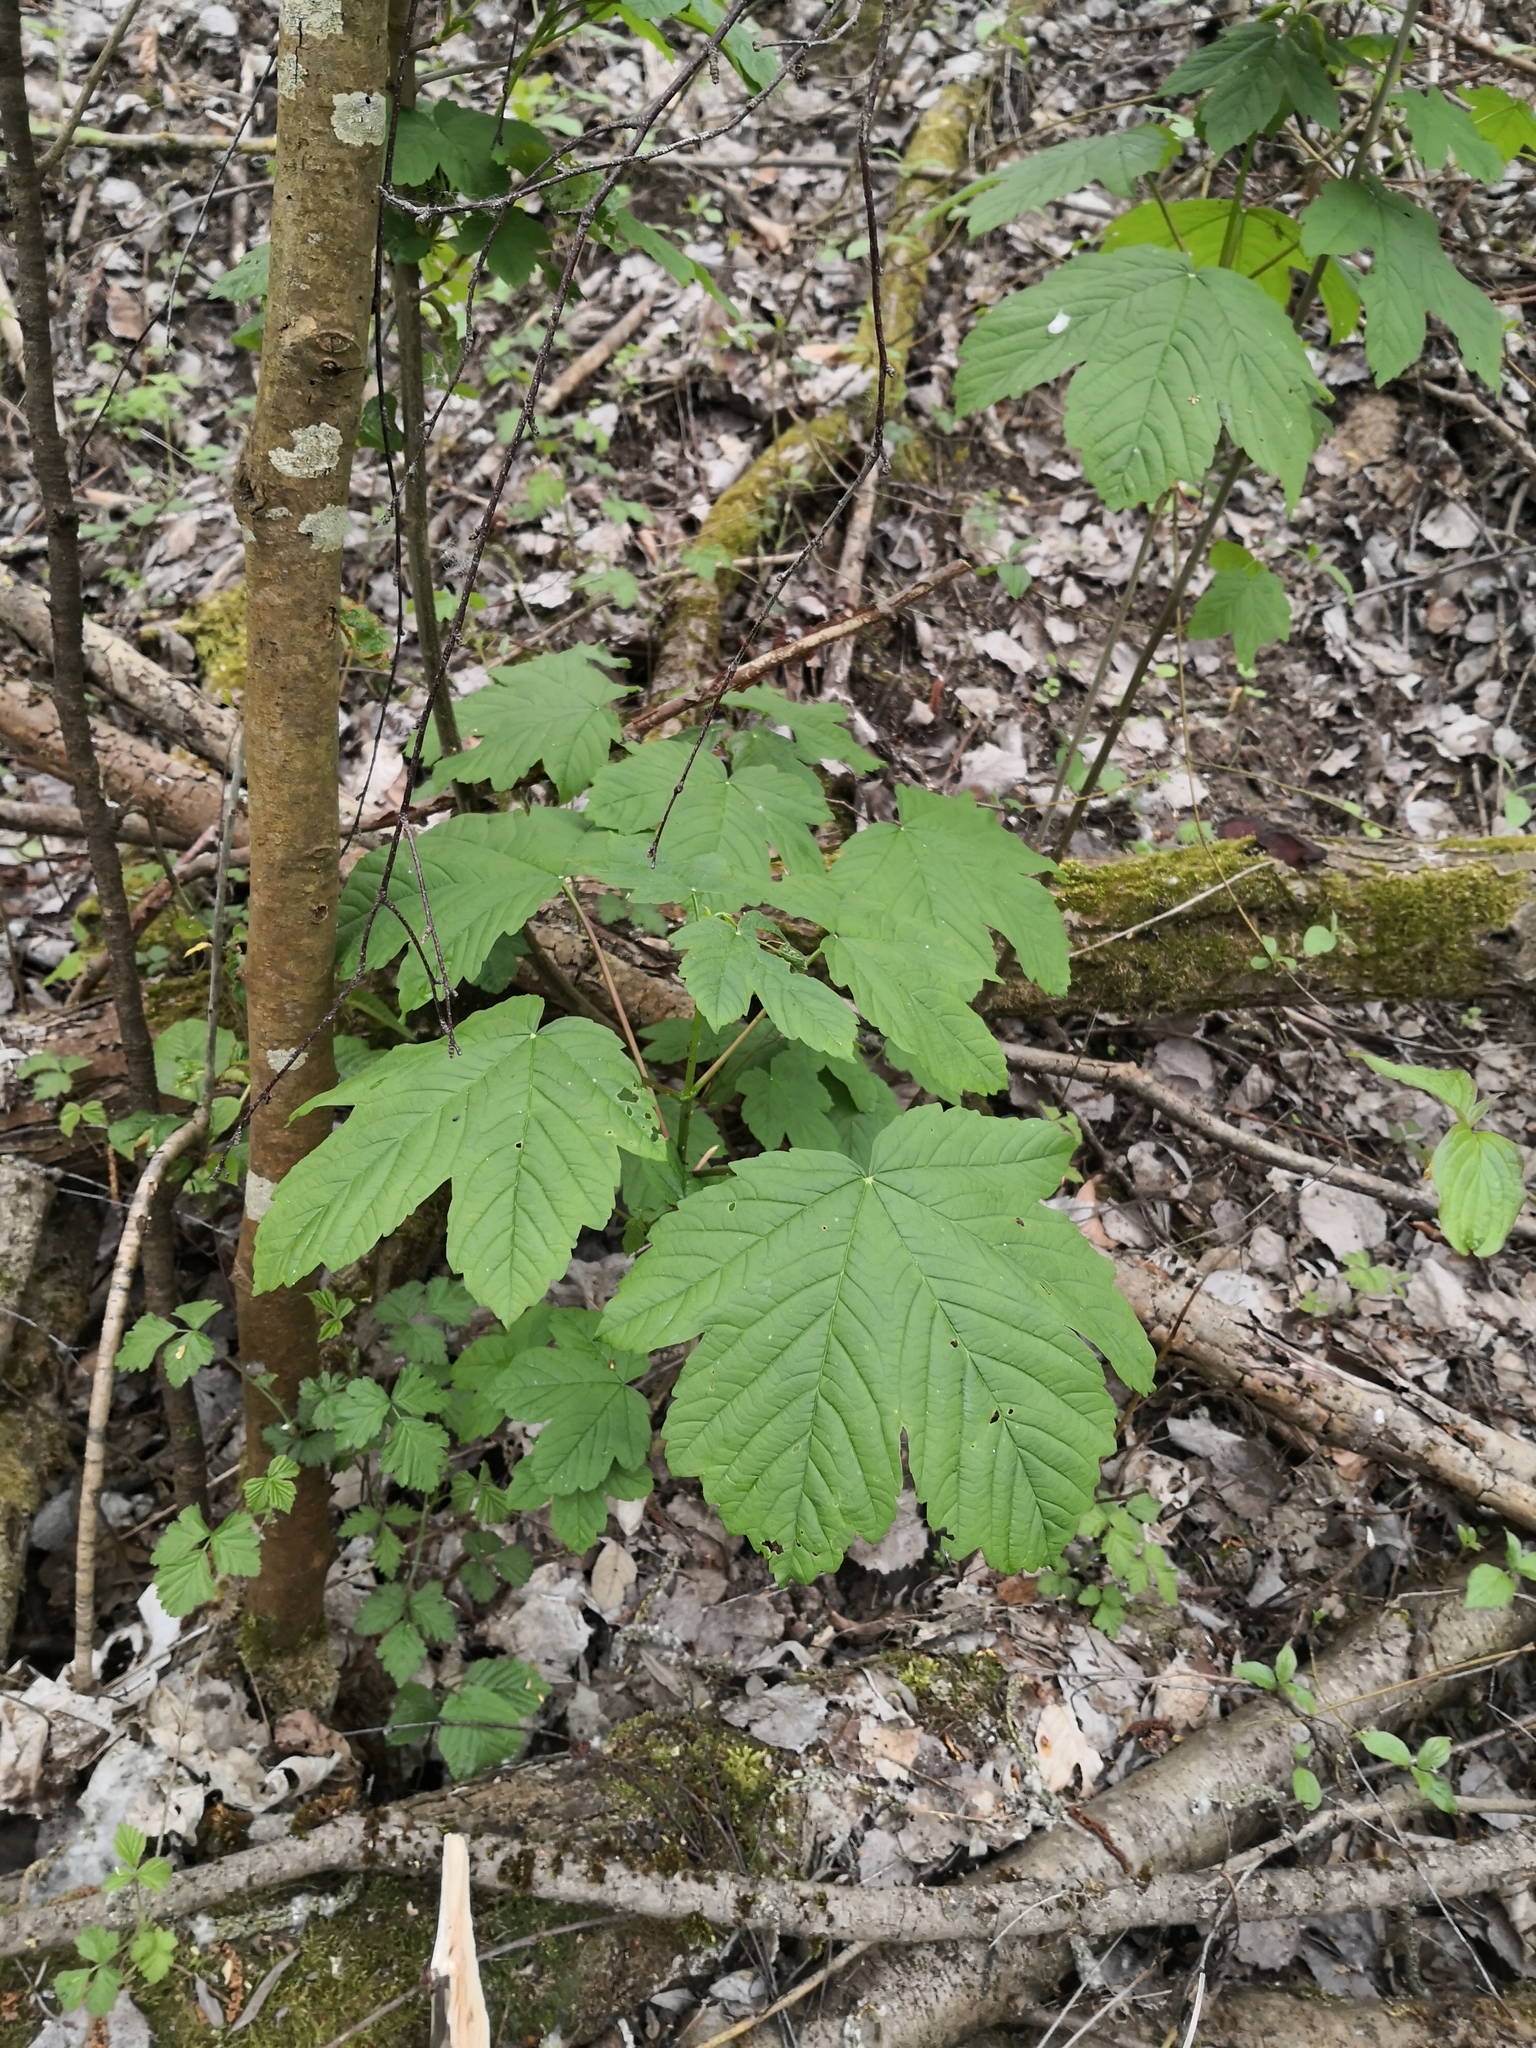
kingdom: Plantae
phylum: Tracheophyta
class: Magnoliopsida
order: Sapindales
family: Sapindaceae
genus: Acer
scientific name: Acer pseudoplatanus
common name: Sycamore
